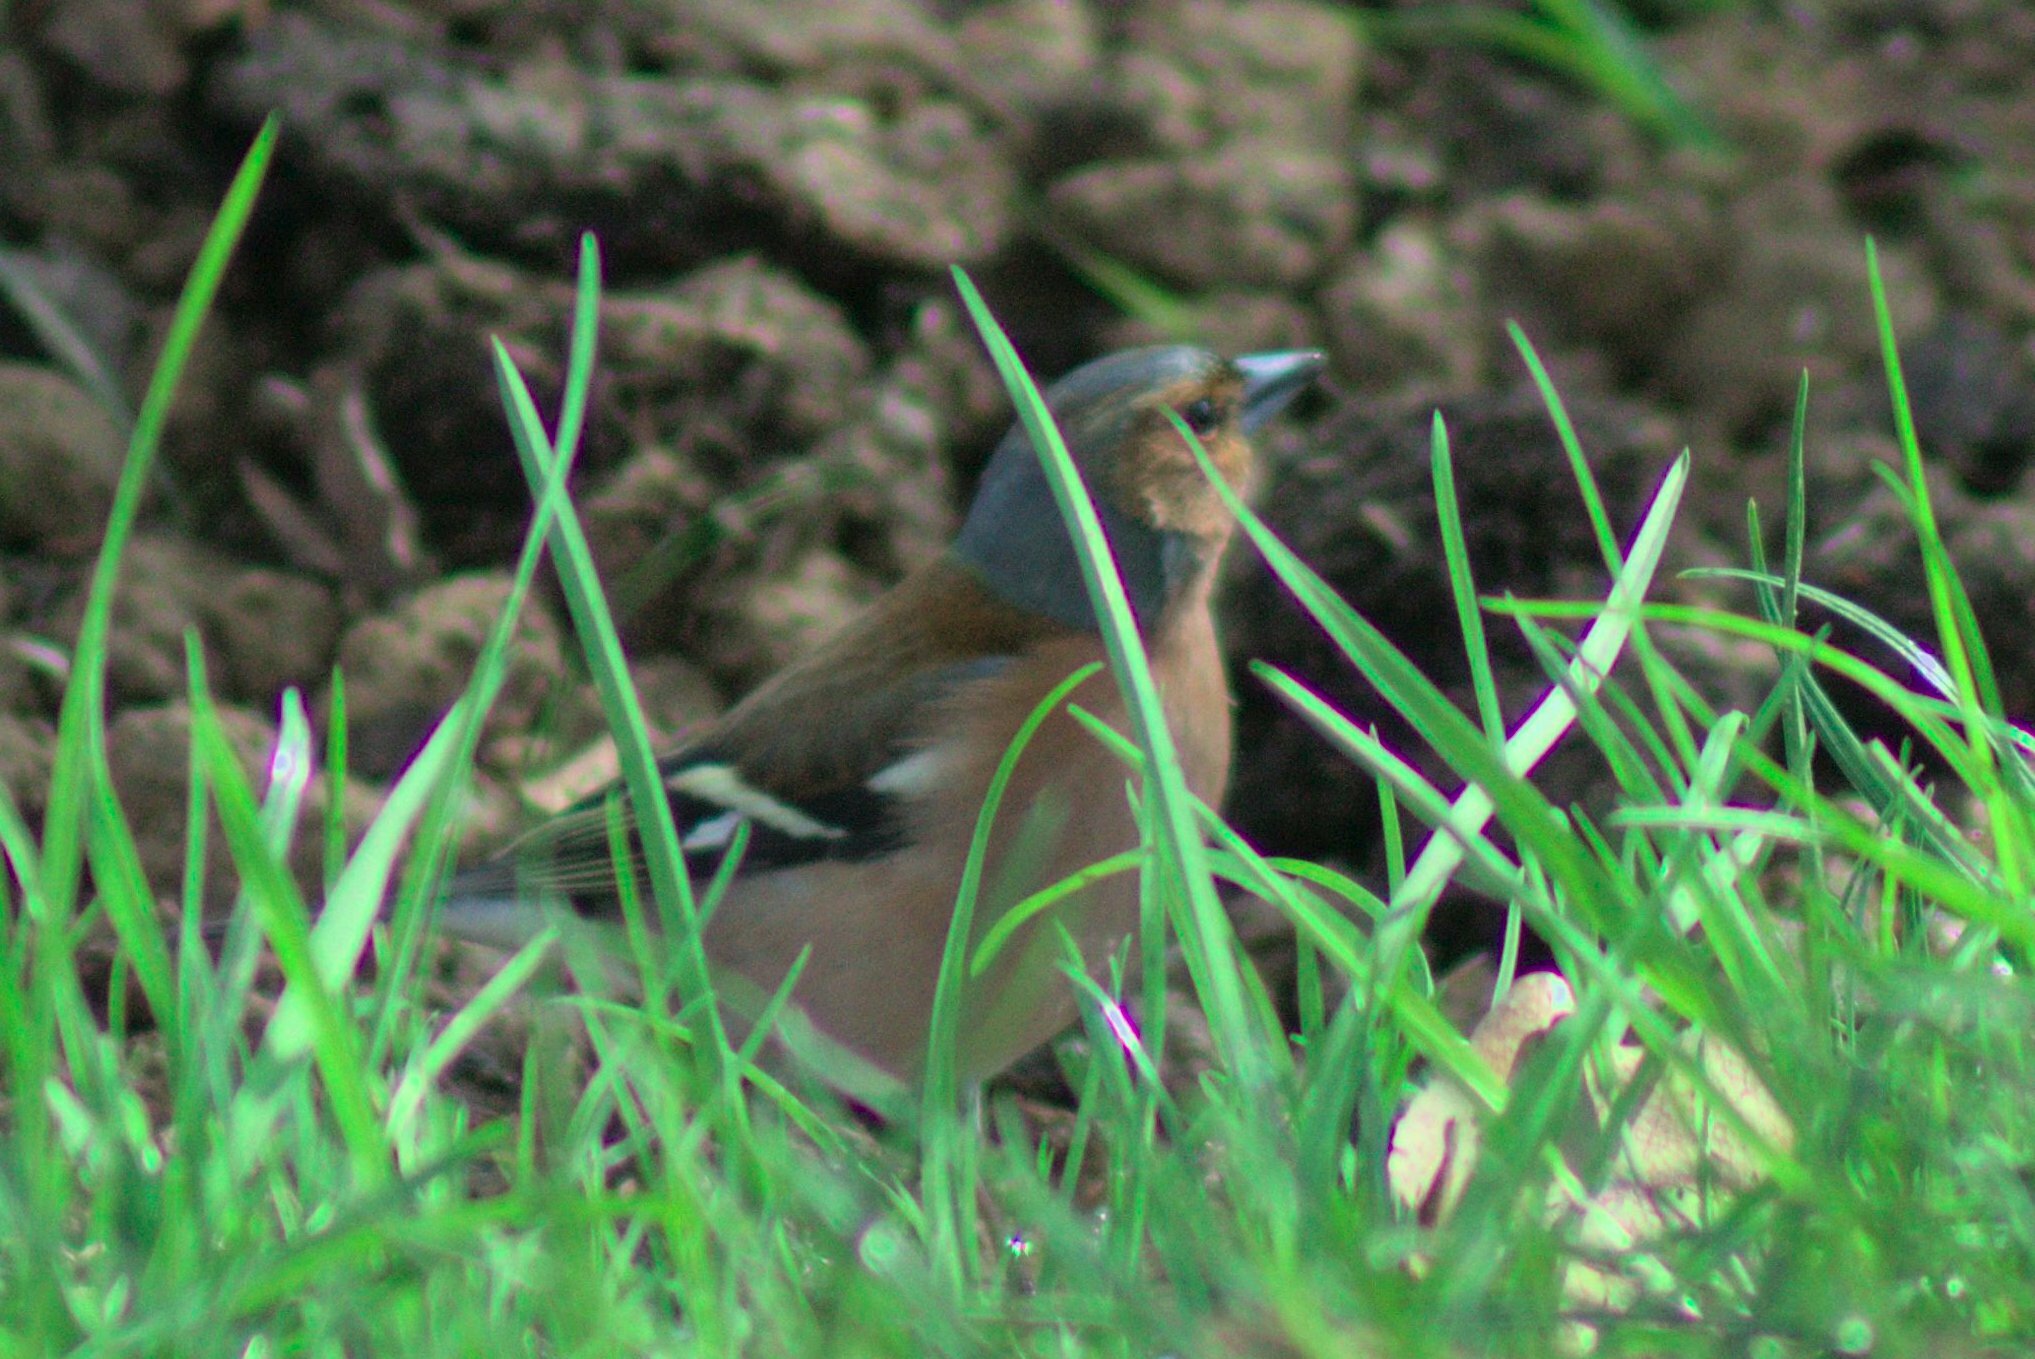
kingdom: Animalia
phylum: Chordata
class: Aves
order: Passeriformes
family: Fringillidae
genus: Fringilla
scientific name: Fringilla coelebs
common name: Common chaffinch
